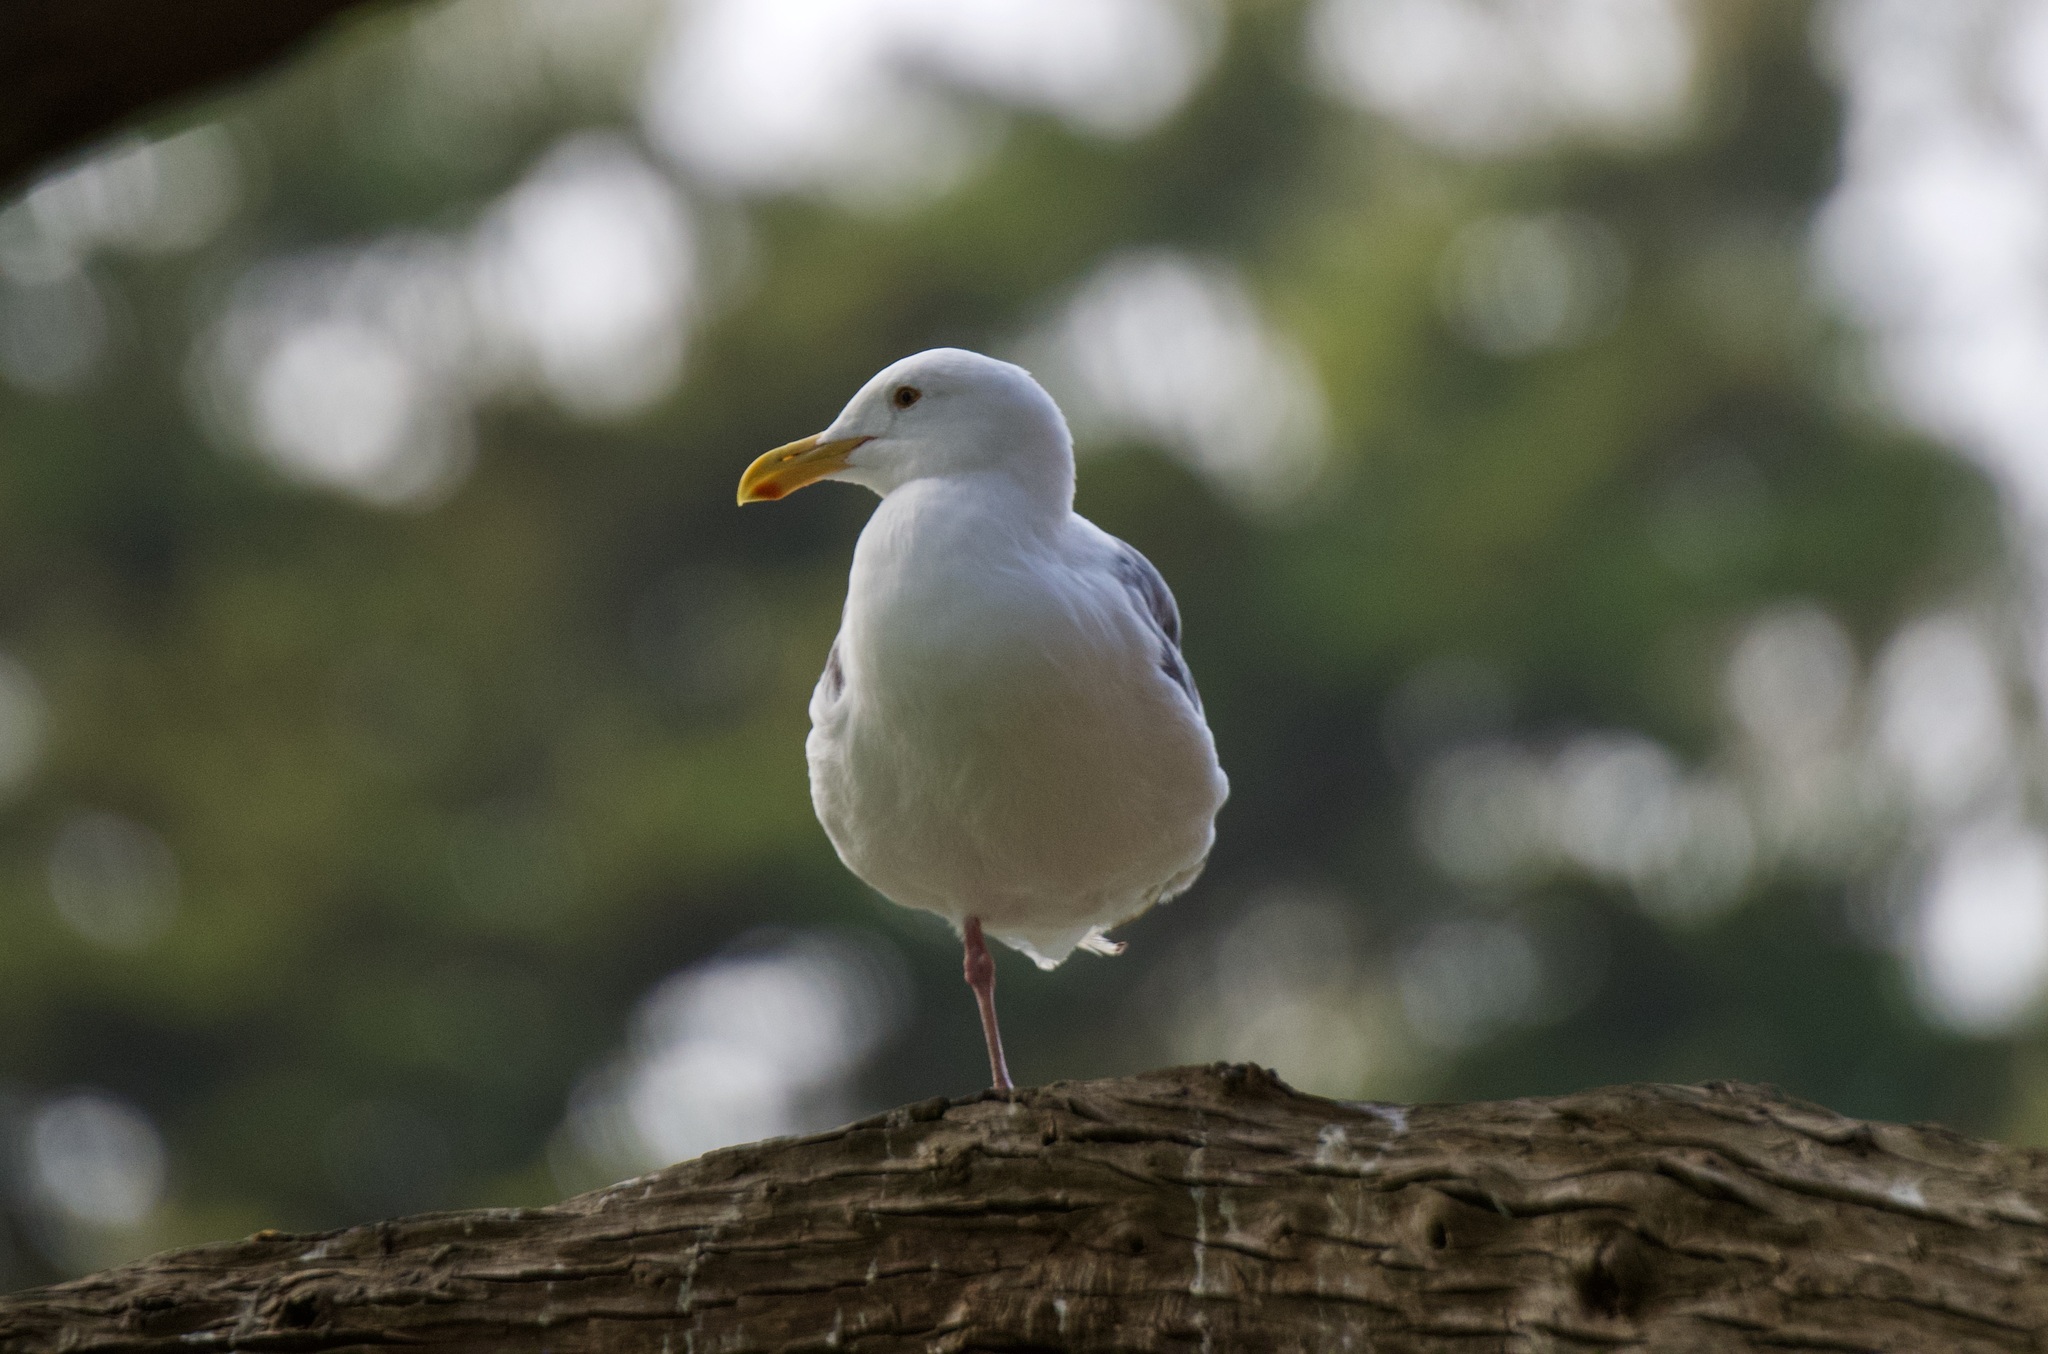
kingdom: Animalia
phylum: Chordata
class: Aves
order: Charadriiformes
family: Laridae
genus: Larus
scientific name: Larus occidentalis
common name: Western gull
